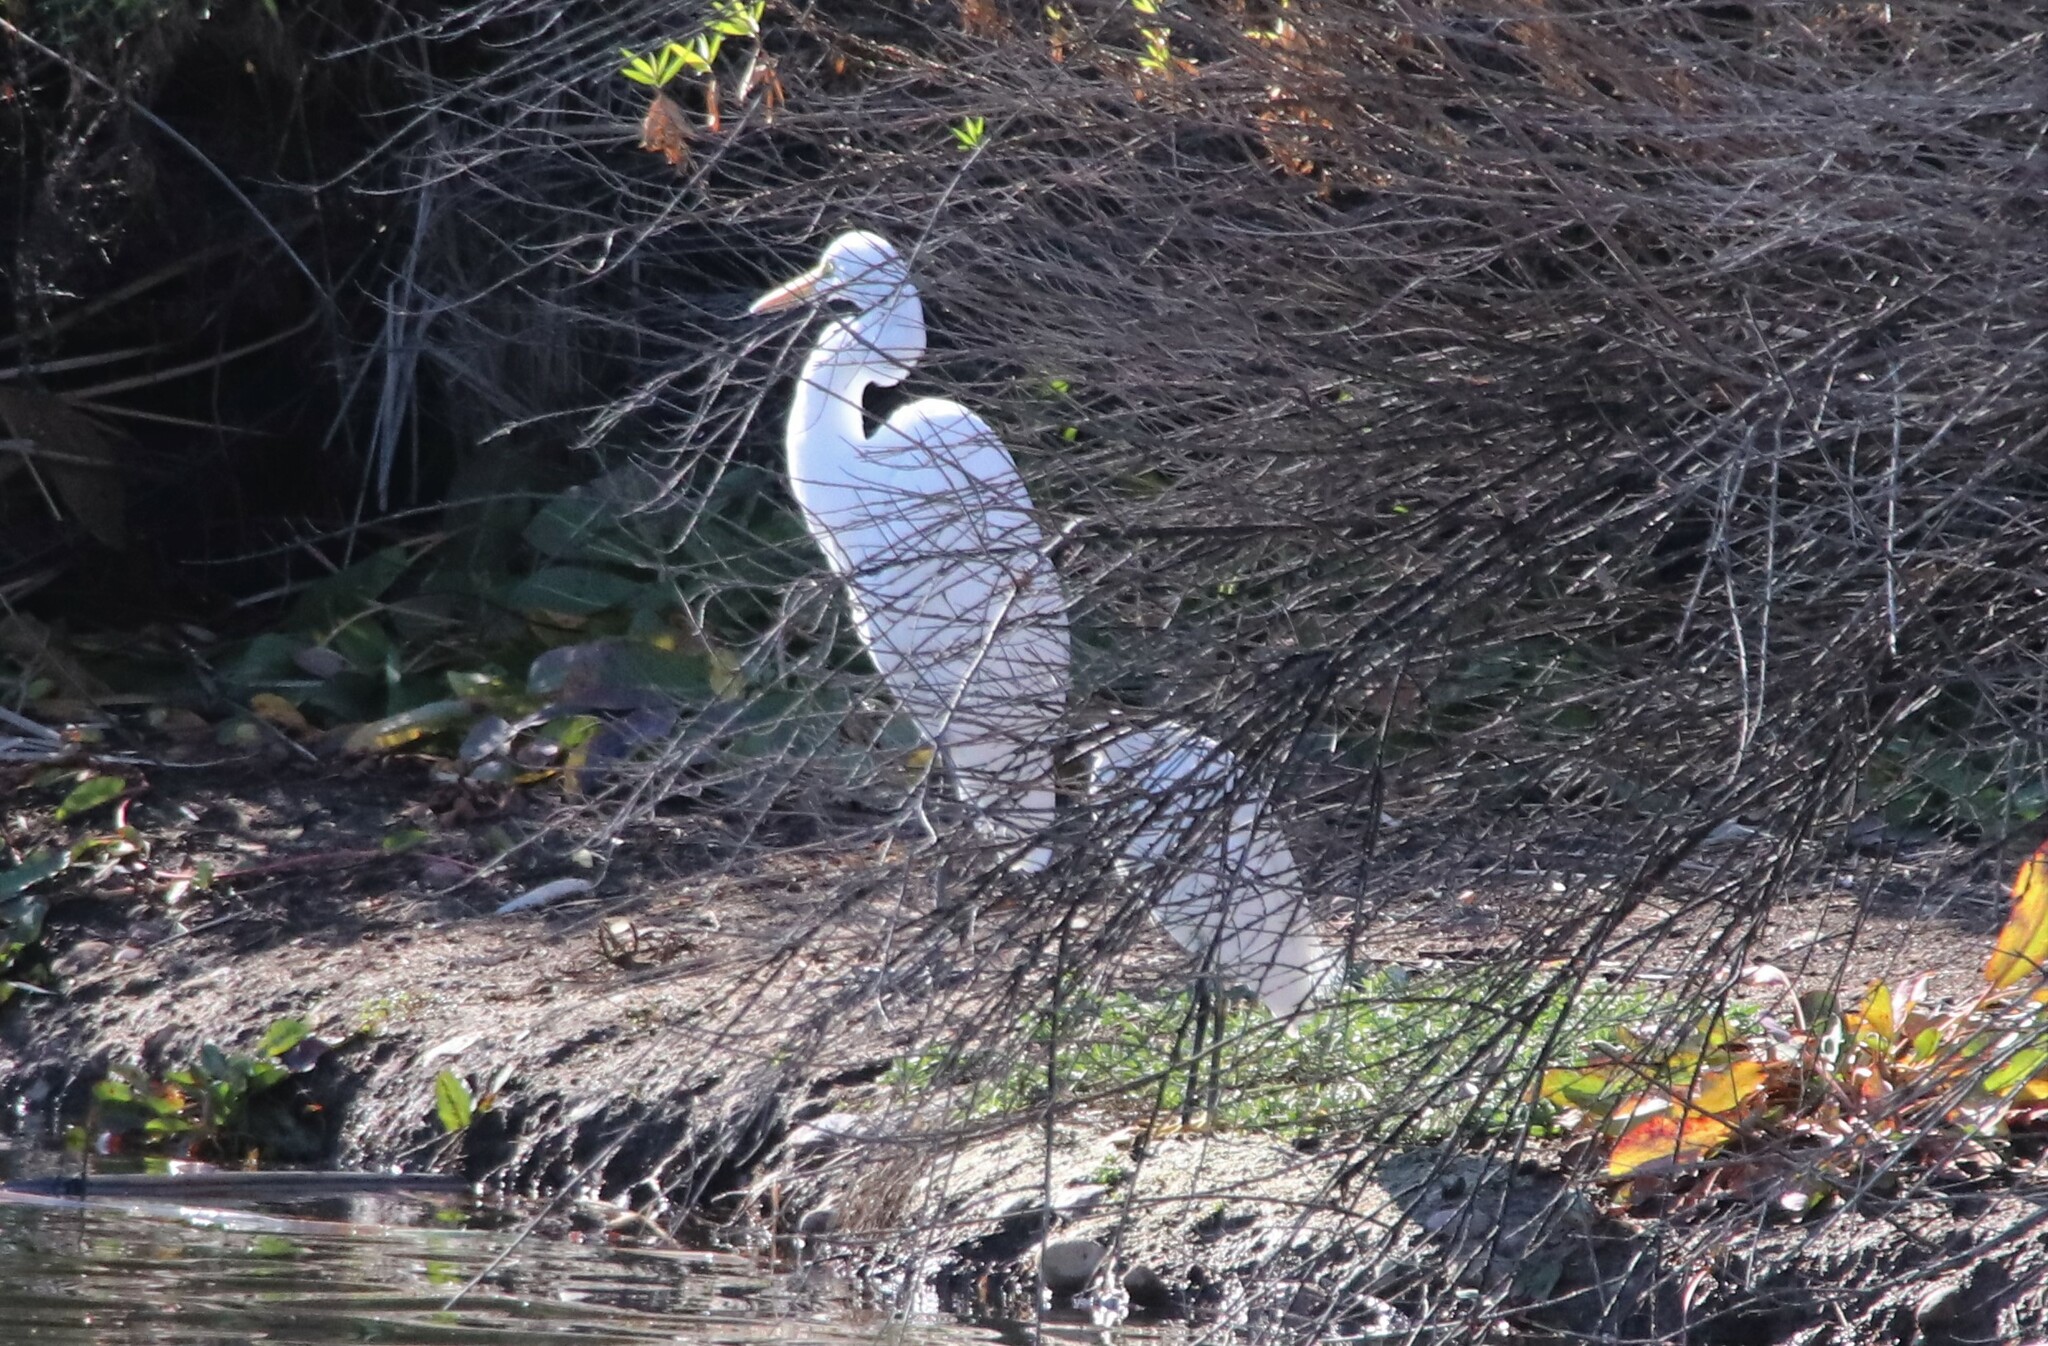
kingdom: Animalia
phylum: Chordata
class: Aves
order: Pelecaniformes
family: Ardeidae
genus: Ardea
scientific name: Ardea alba
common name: Great egret
